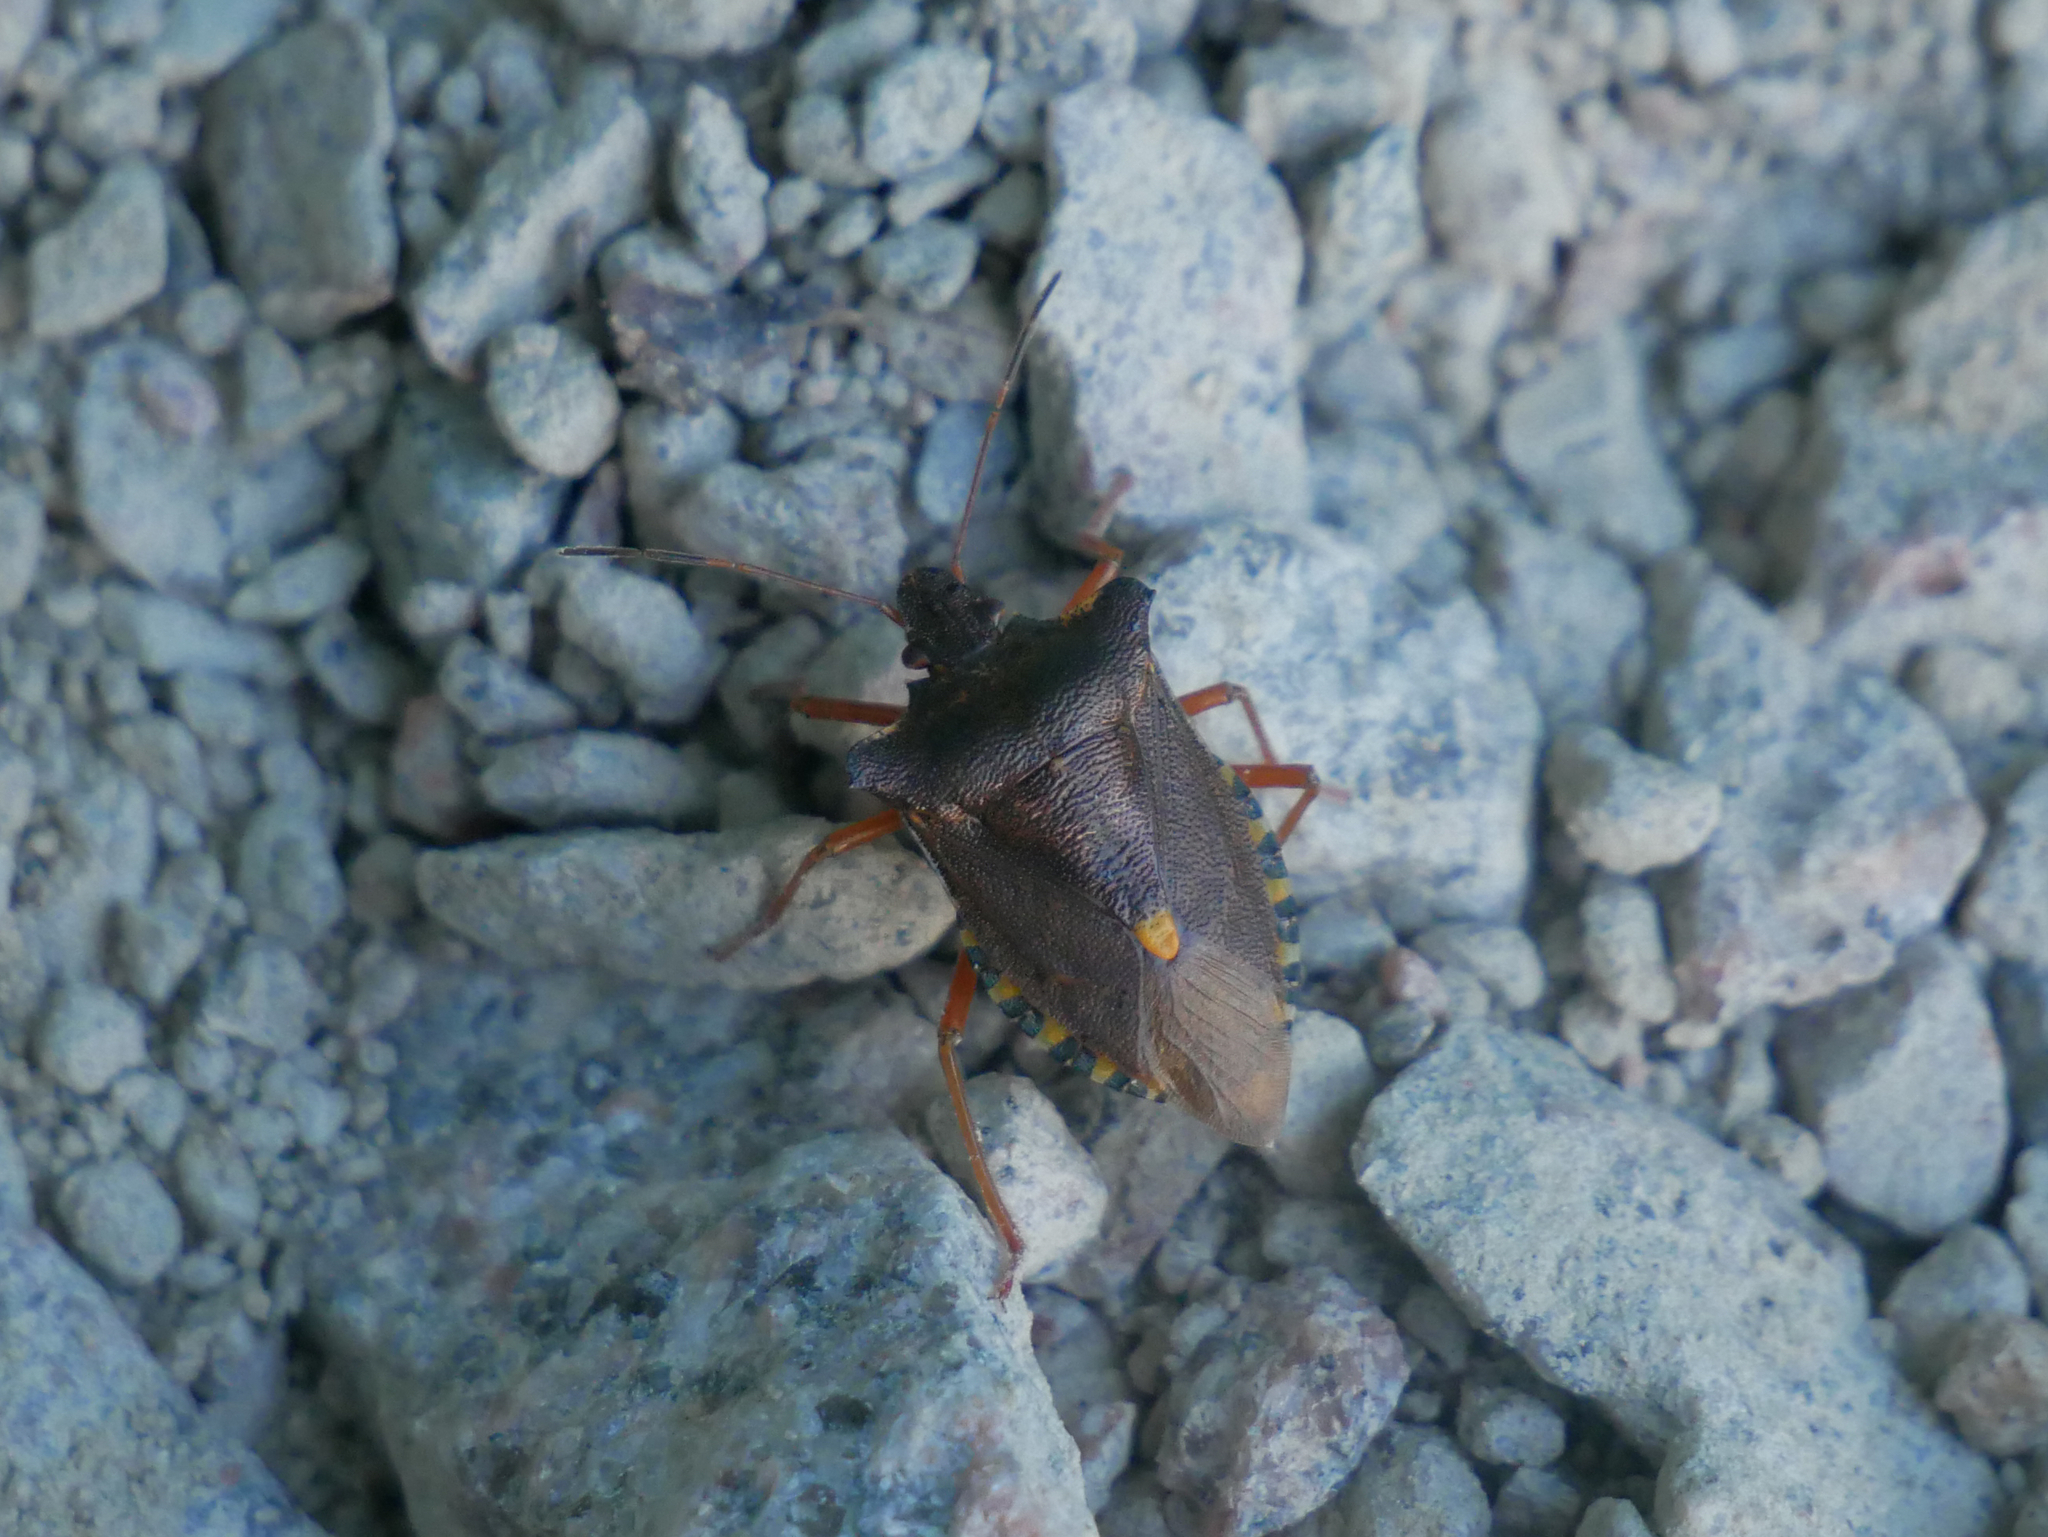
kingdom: Animalia
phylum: Arthropoda
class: Insecta
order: Hemiptera
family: Pentatomidae
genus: Pentatoma
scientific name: Pentatoma rufipes
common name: Forest bug
